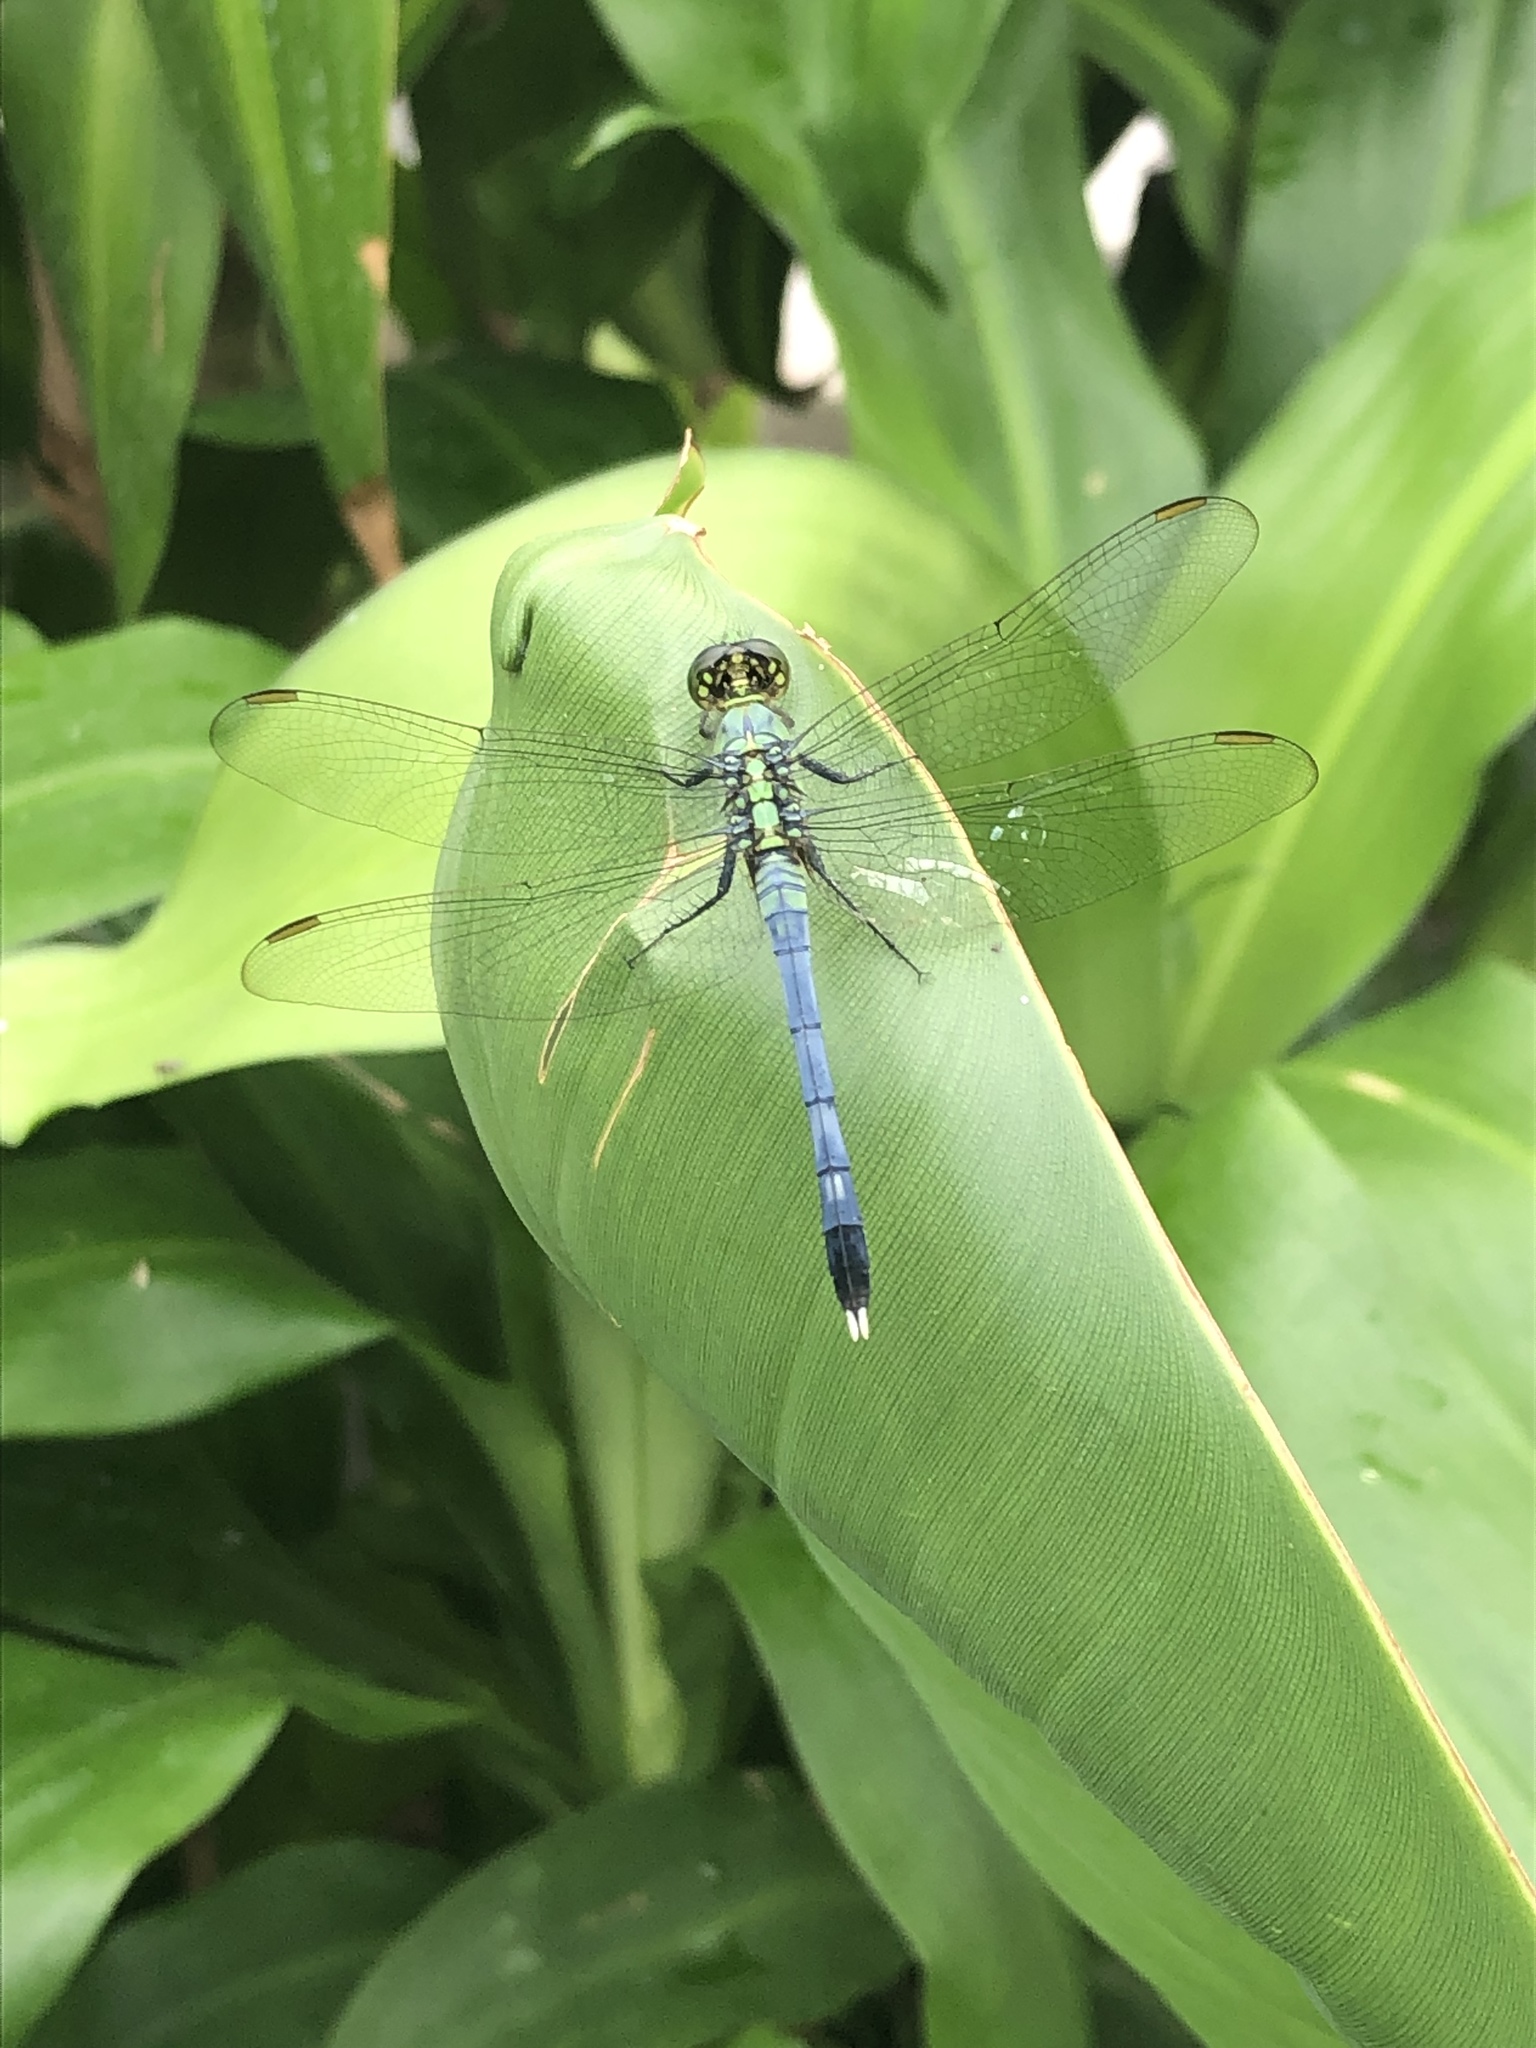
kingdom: Animalia
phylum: Arthropoda
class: Insecta
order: Odonata
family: Libellulidae
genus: Erythemis
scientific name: Erythemis simplicicollis
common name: Eastern pondhawk
